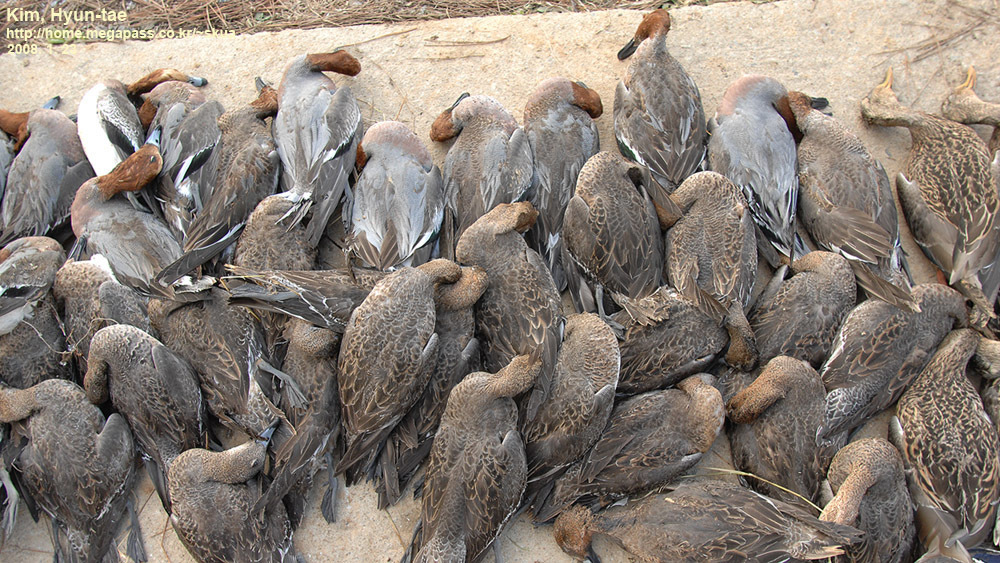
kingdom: Animalia
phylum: Chordata
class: Aves
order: Anseriformes
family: Anatidae
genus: Mareca
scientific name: Mareca penelope
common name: Eurasian wigeon
